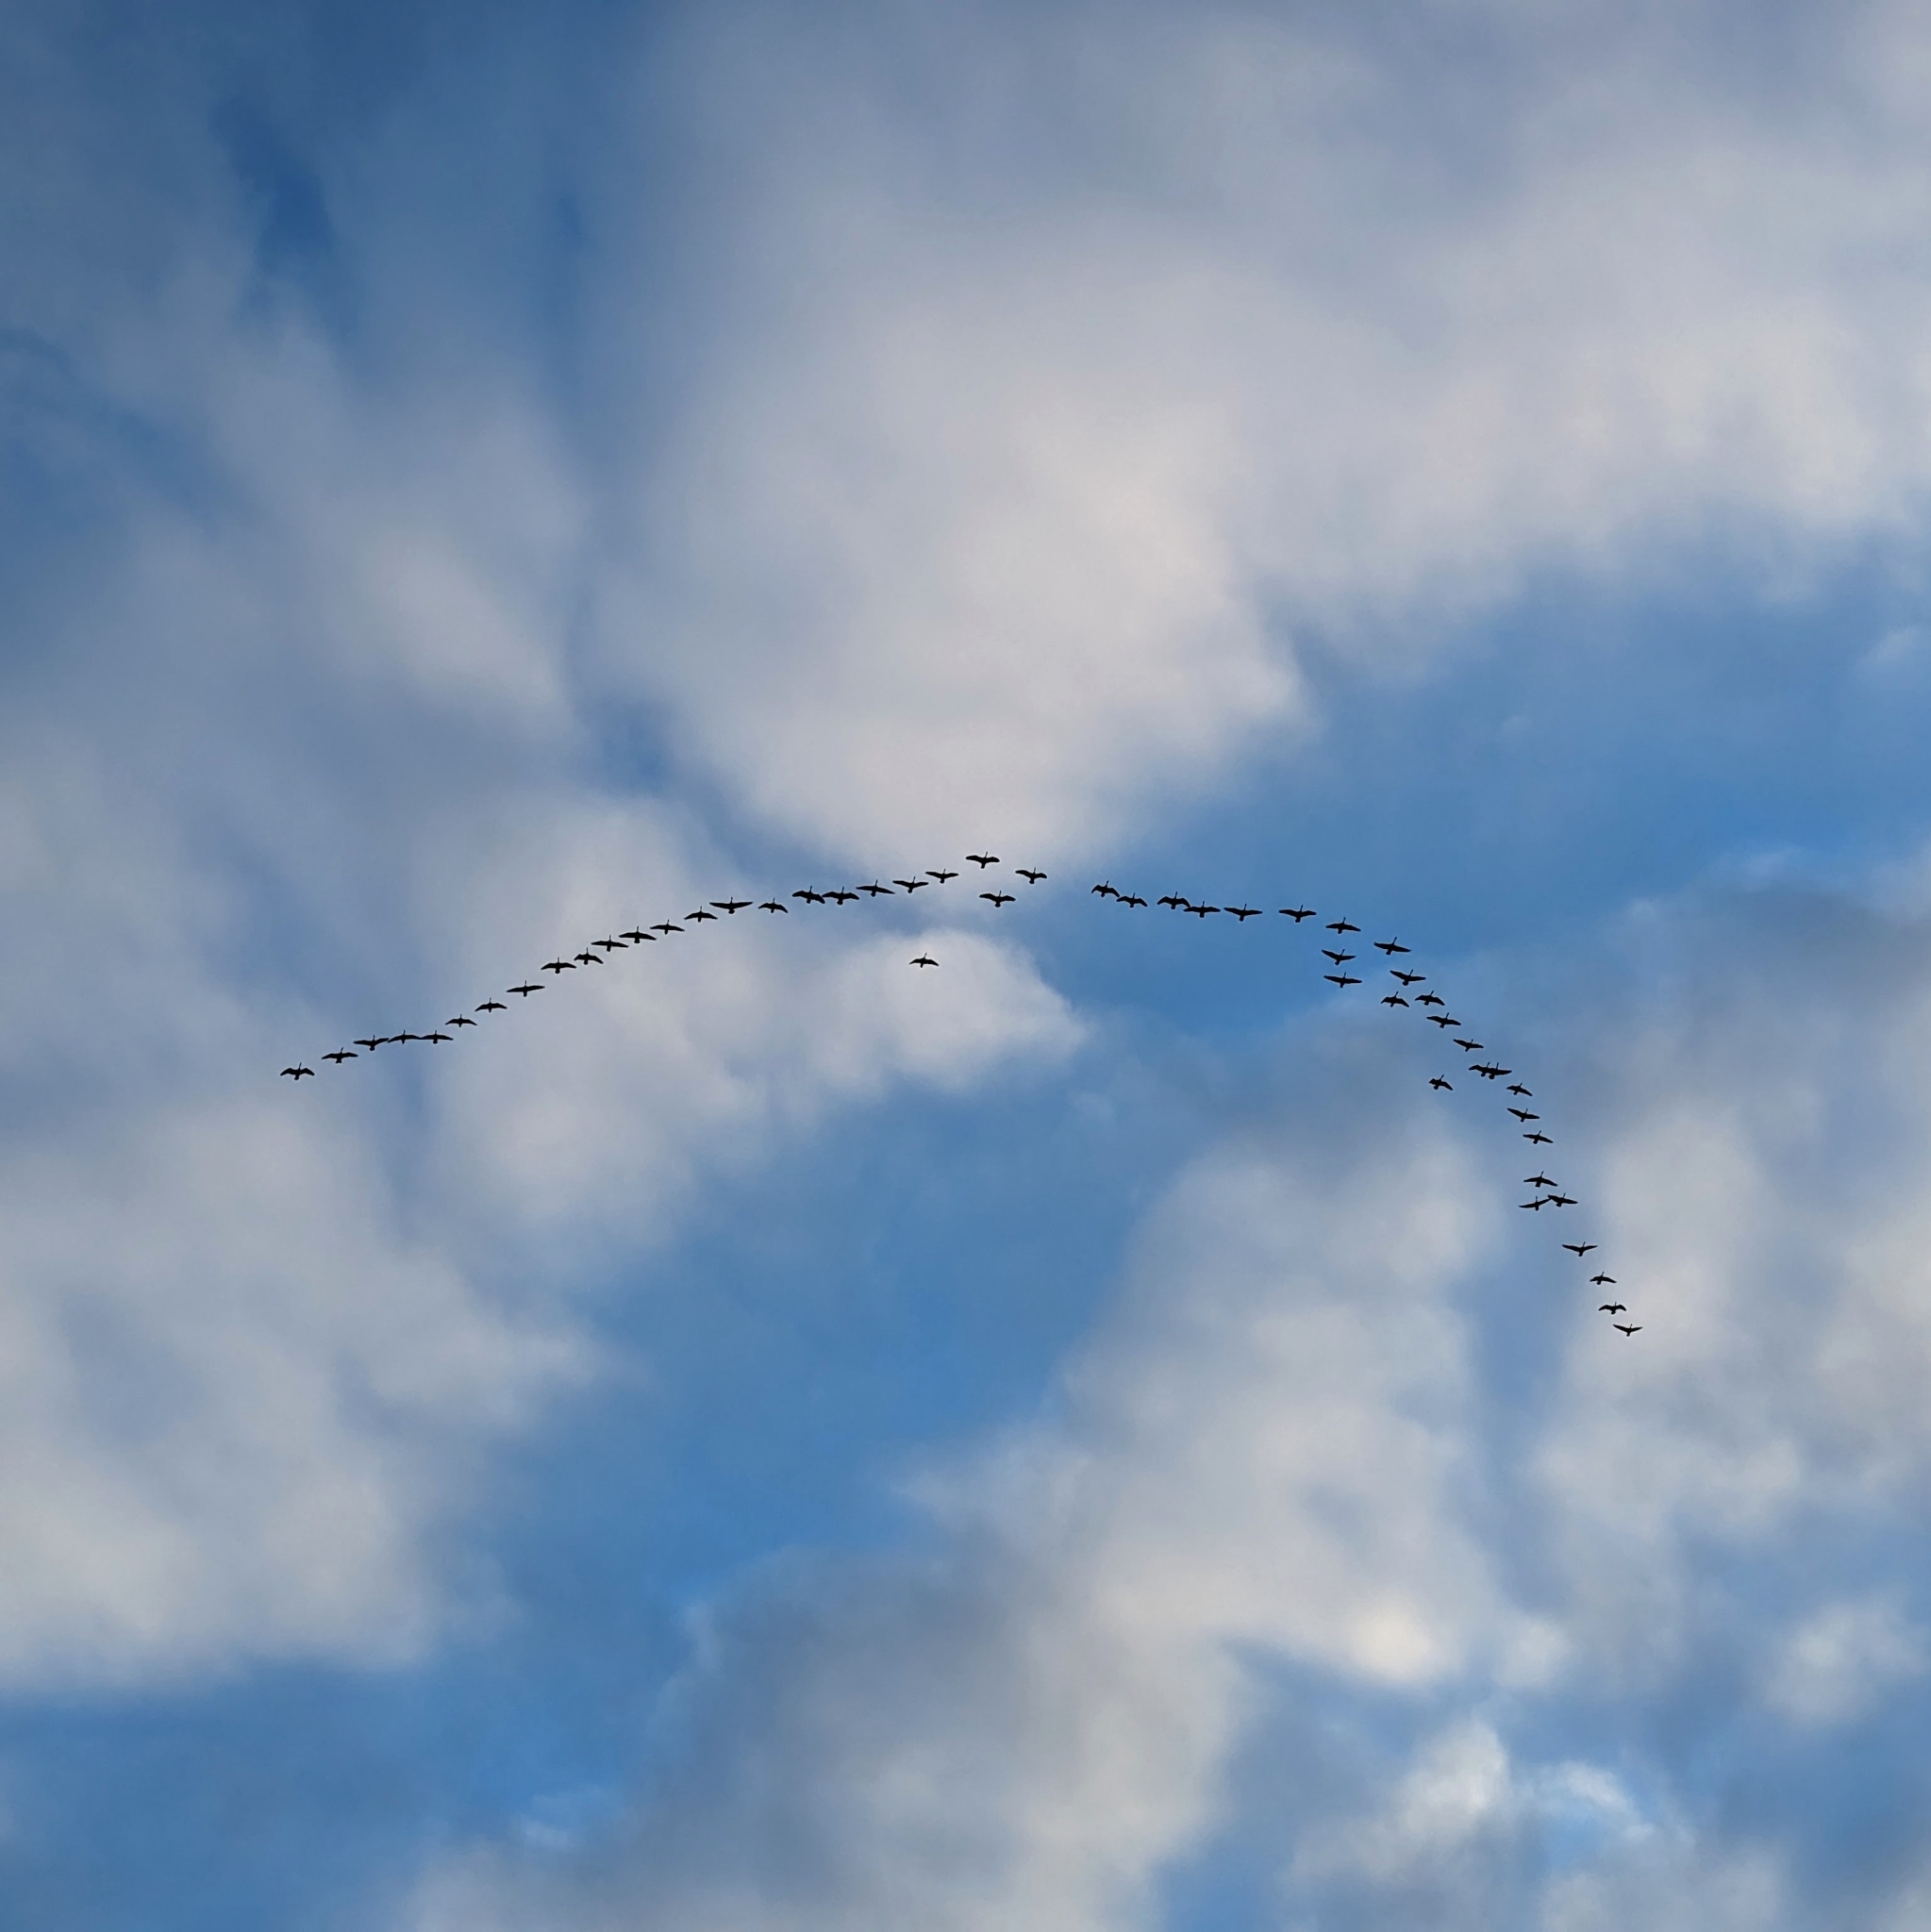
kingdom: Animalia
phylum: Chordata
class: Aves
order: Anseriformes
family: Anatidae
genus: Branta
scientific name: Branta canadensis
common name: Canada goose
